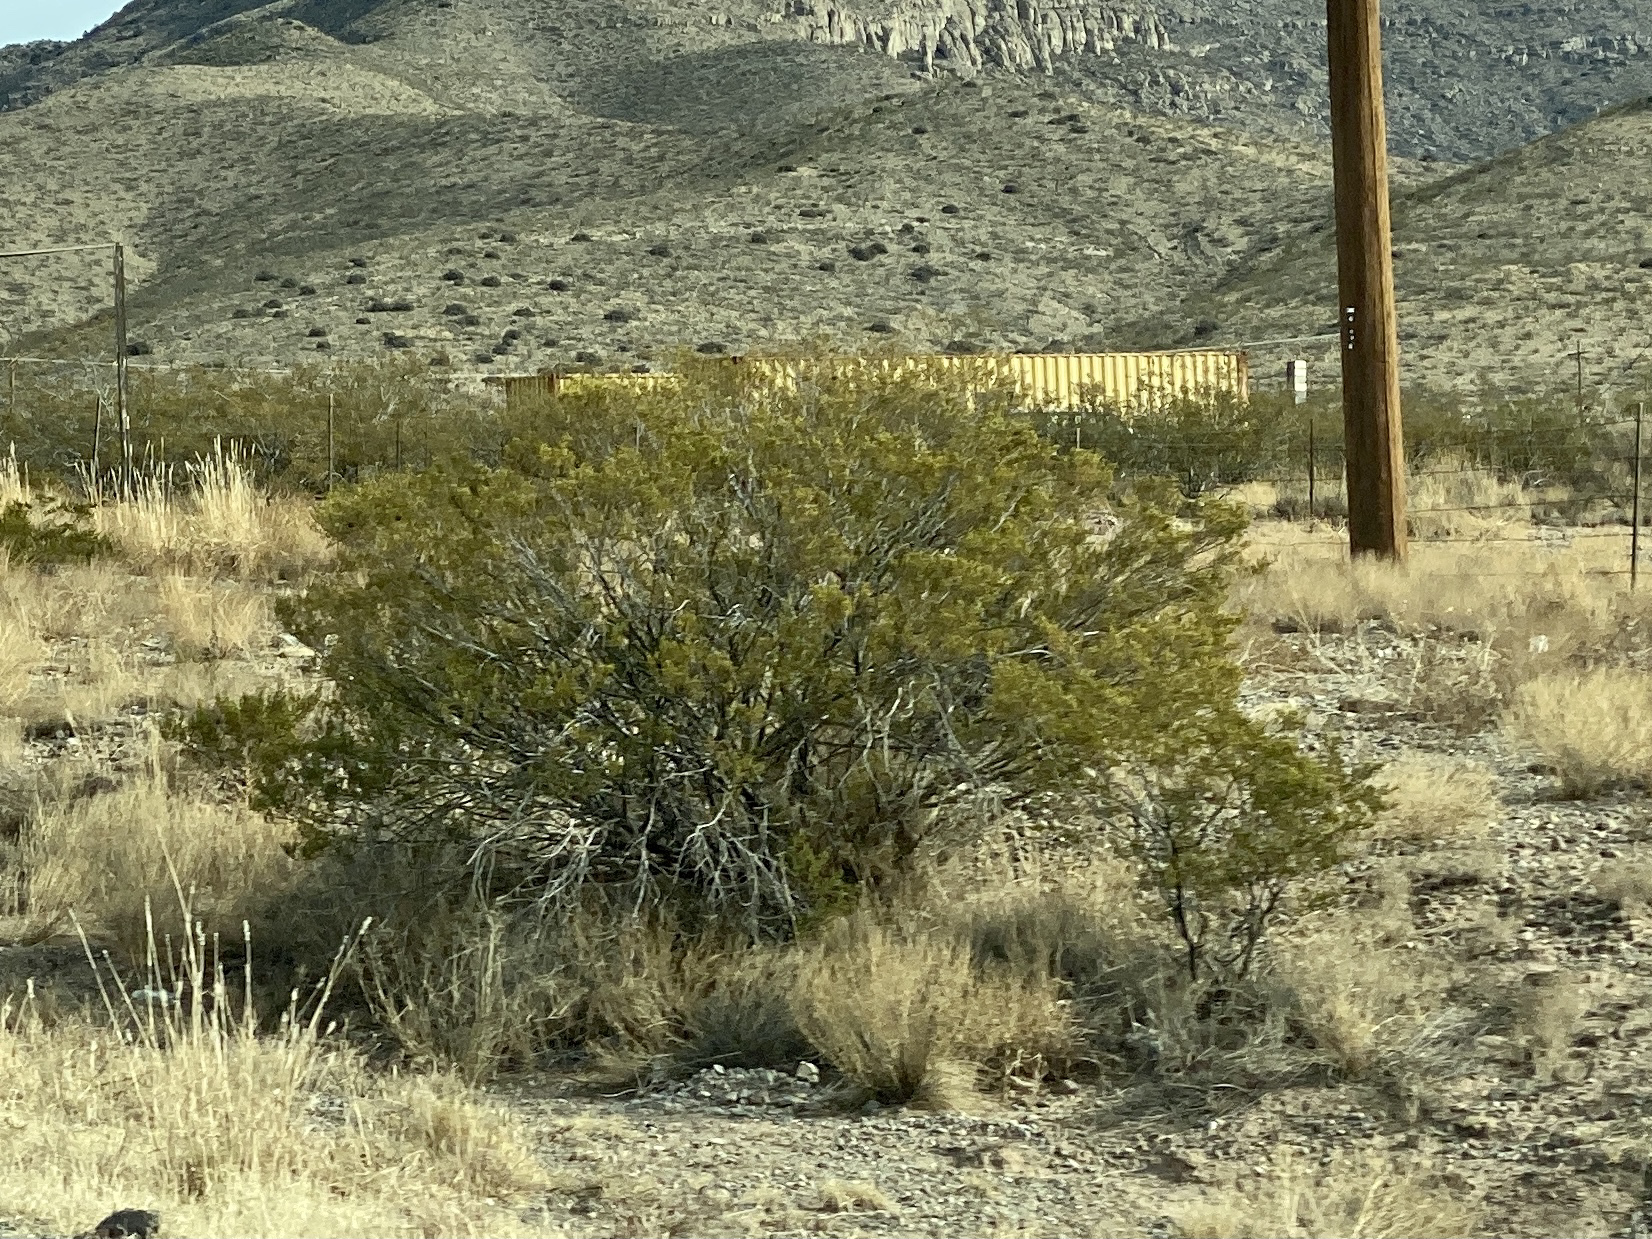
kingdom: Plantae
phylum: Tracheophyta
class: Magnoliopsida
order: Zygophyllales
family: Zygophyllaceae
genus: Larrea
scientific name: Larrea tridentata
